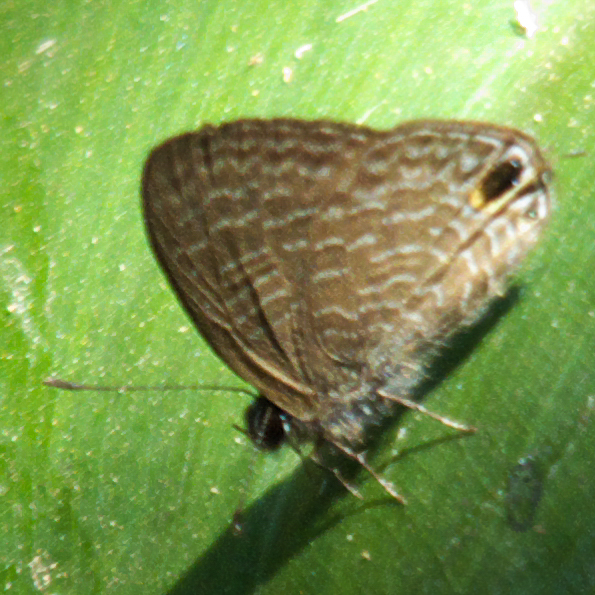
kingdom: Animalia
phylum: Arthropoda
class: Insecta
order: Lepidoptera
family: Lycaenidae
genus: Ionolyce
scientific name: Ionolyce helicon
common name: Pointed line blue
